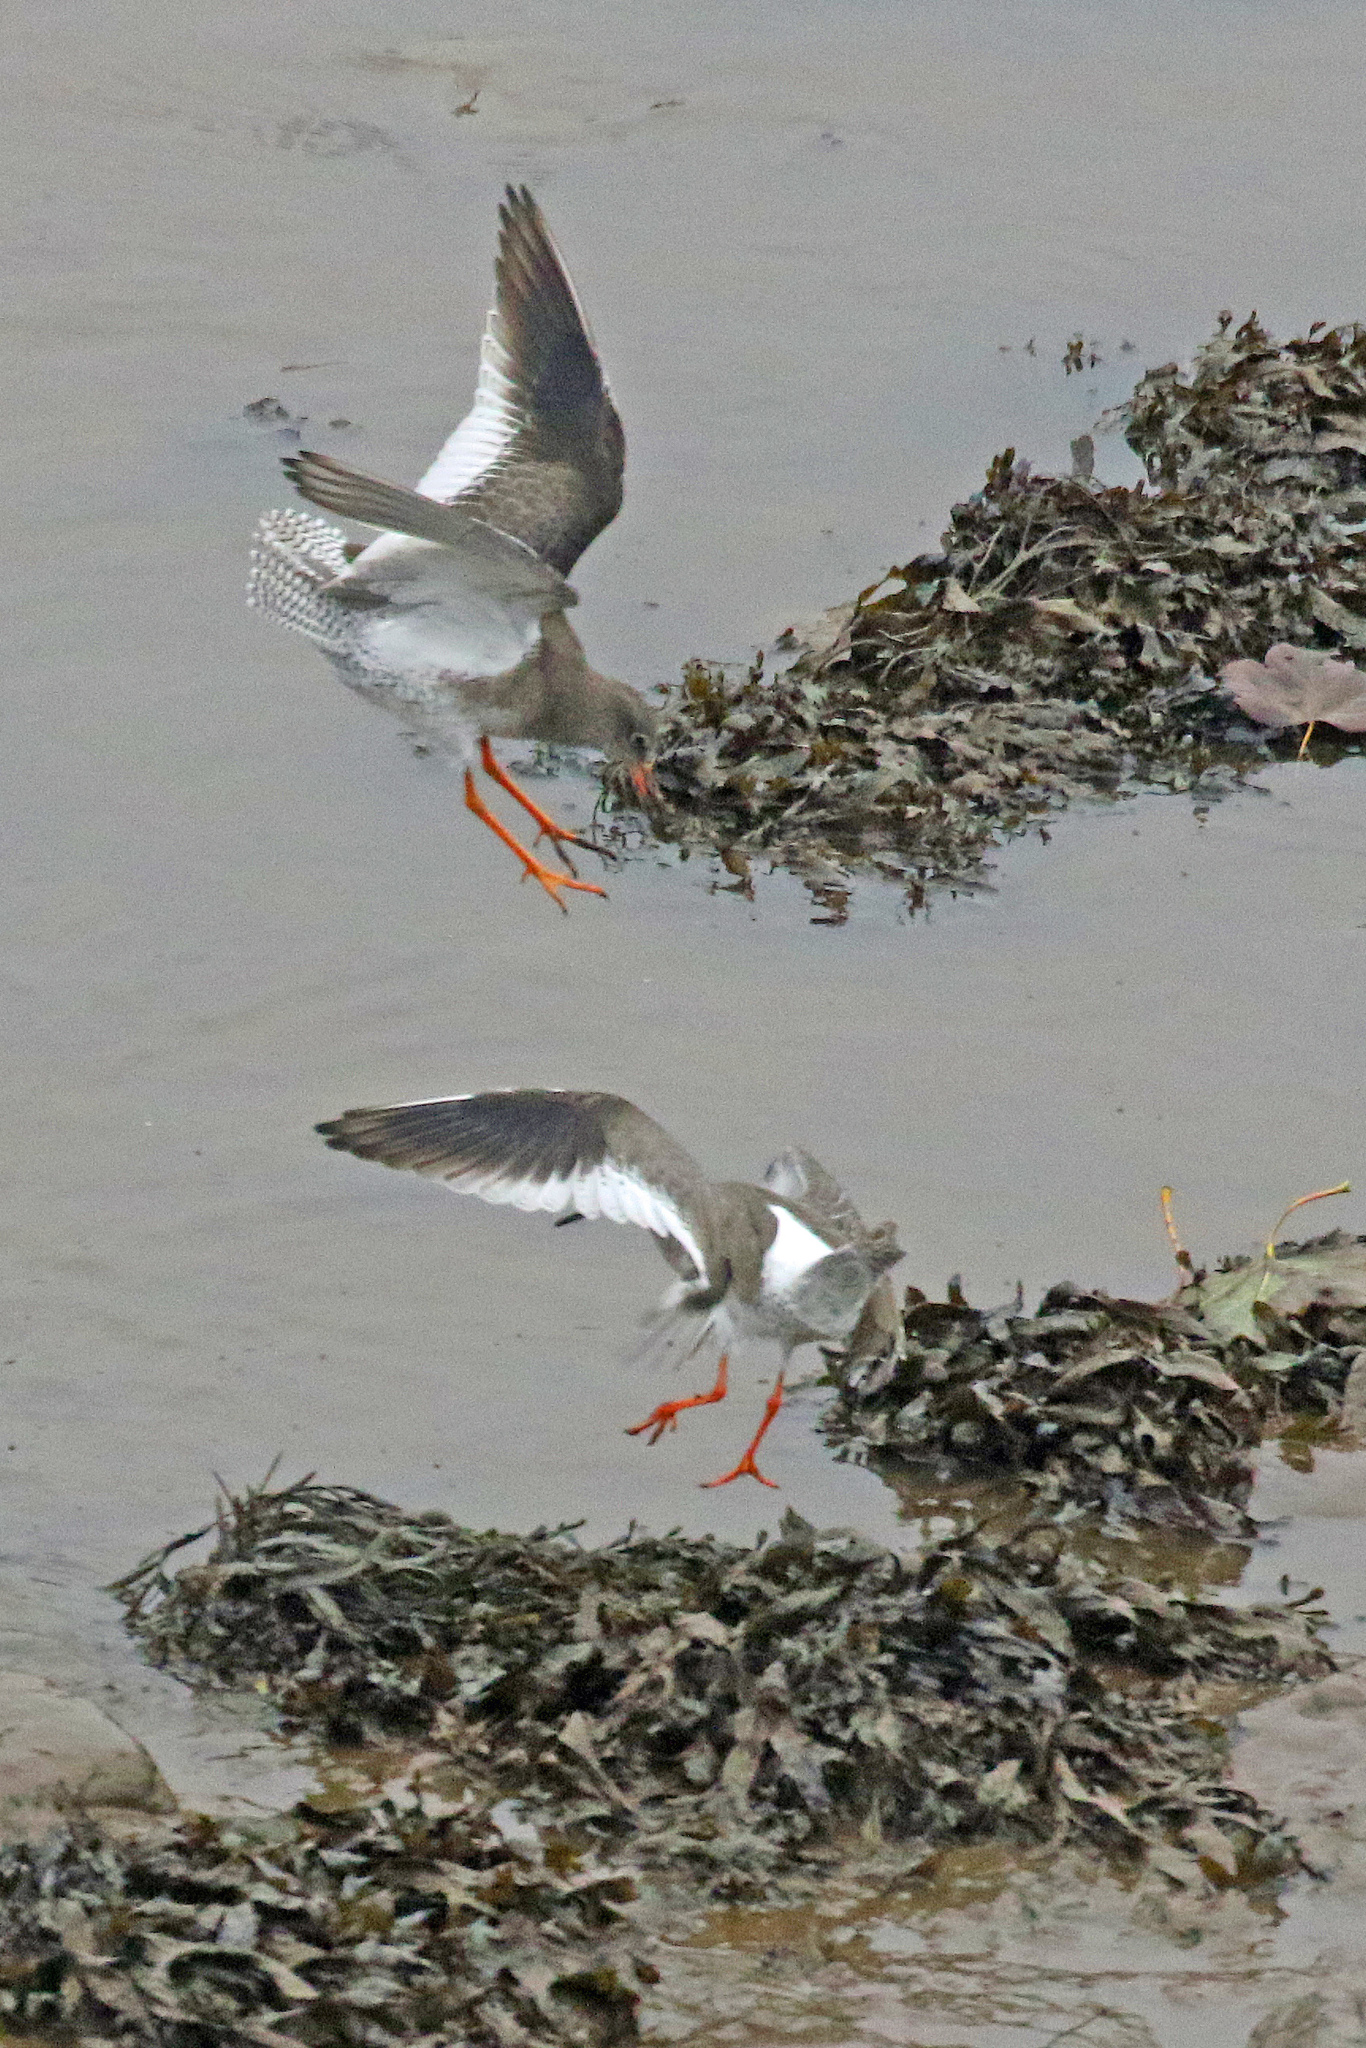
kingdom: Animalia
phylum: Chordata
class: Aves
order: Charadriiformes
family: Scolopacidae
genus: Tringa
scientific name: Tringa totanus
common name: Common redshank
